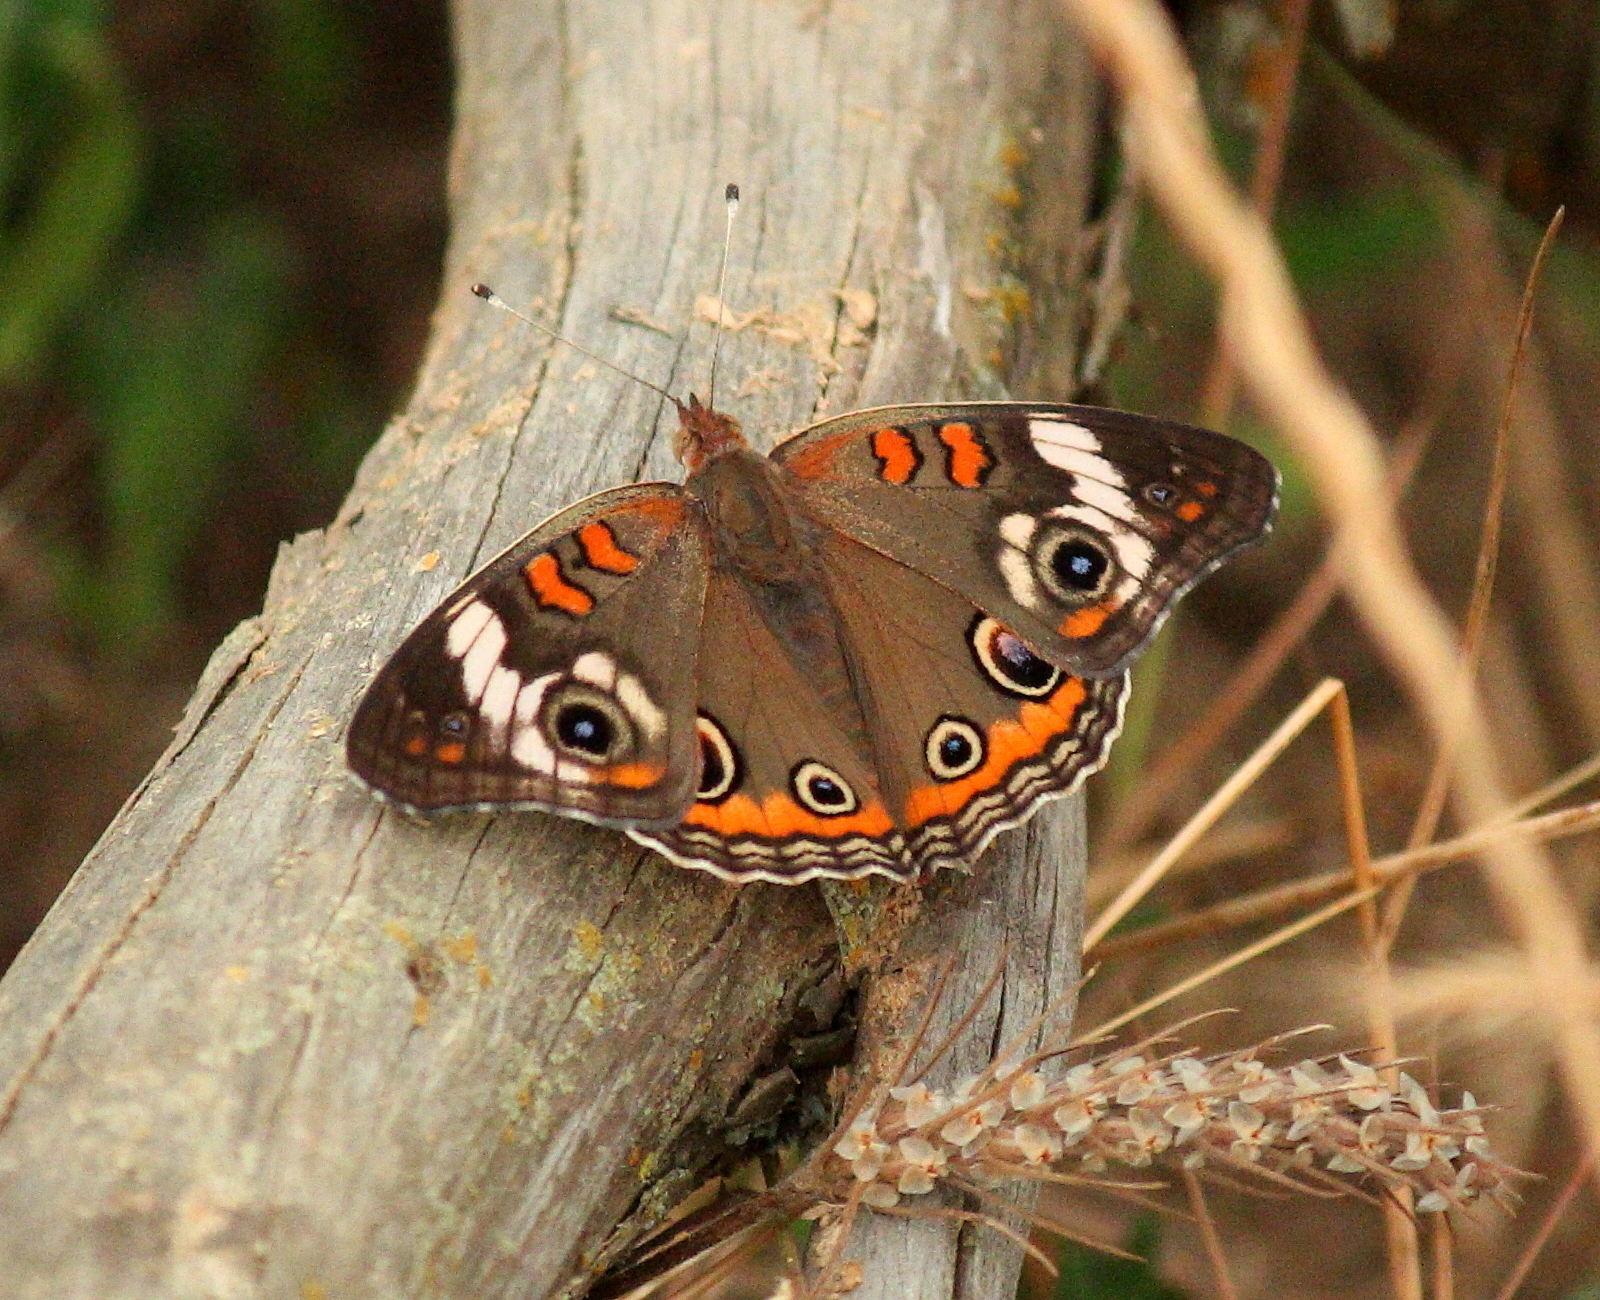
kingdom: Animalia
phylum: Arthropoda
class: Insecta
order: Lepidoptera
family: Nymphalidae
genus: Junonia
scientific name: Junonia coenia
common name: Common buckeye
